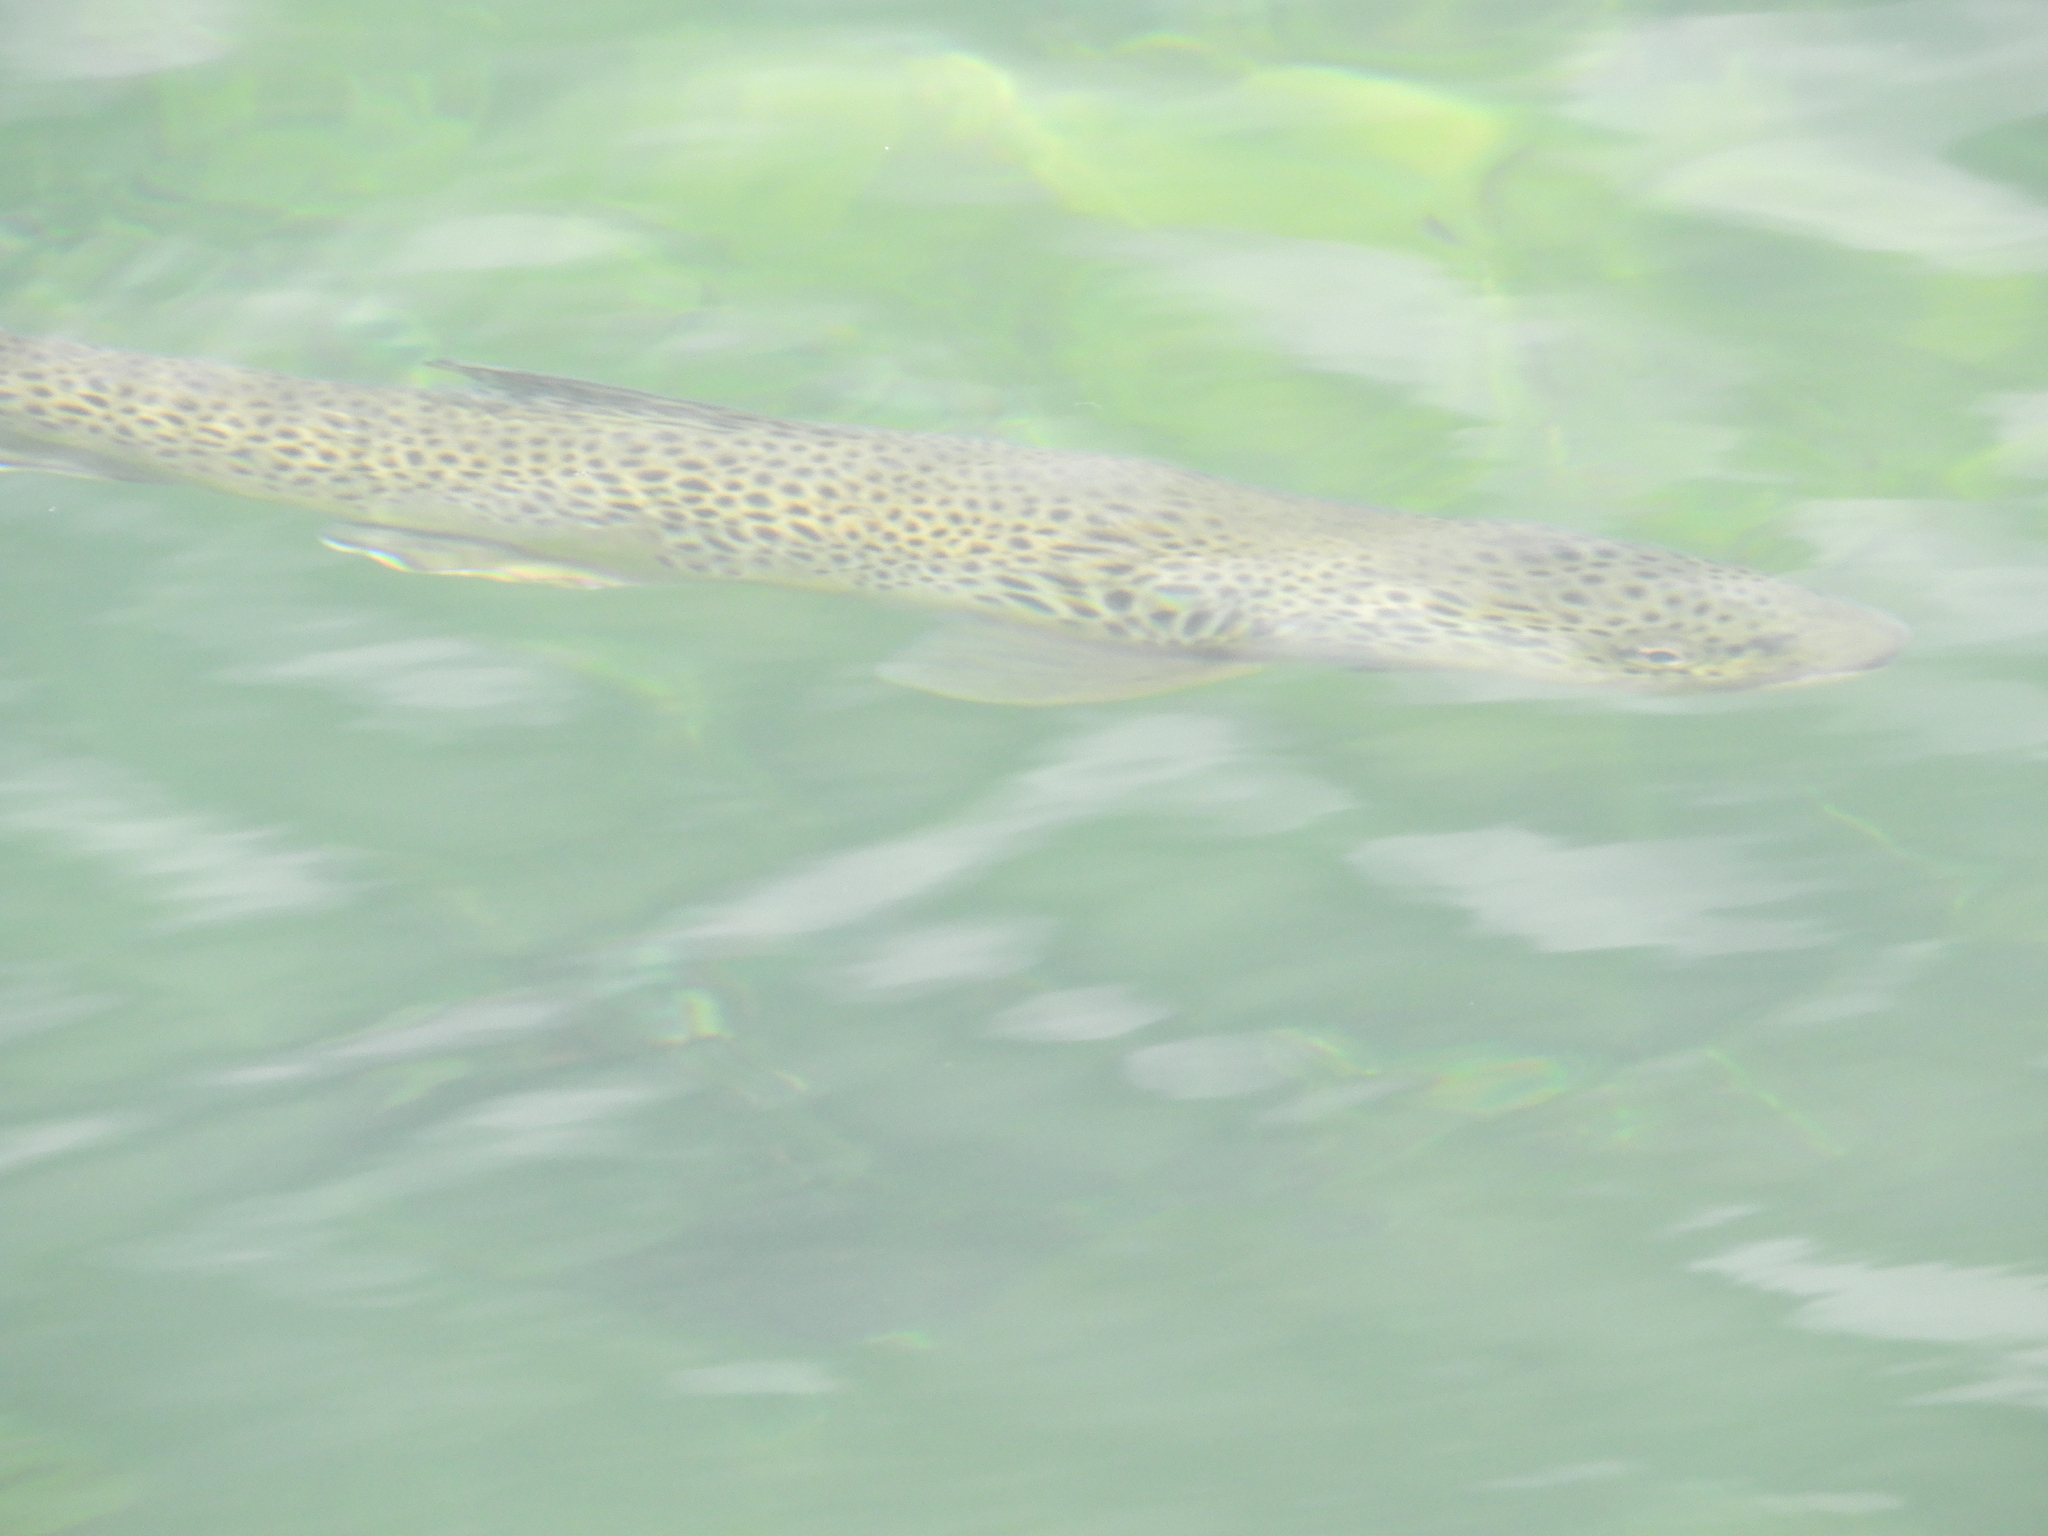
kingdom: Animalia
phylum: Chordata
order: Salmoniformes
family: Salmonidae
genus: Salmo
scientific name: Salmo trutta
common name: Brown trout
